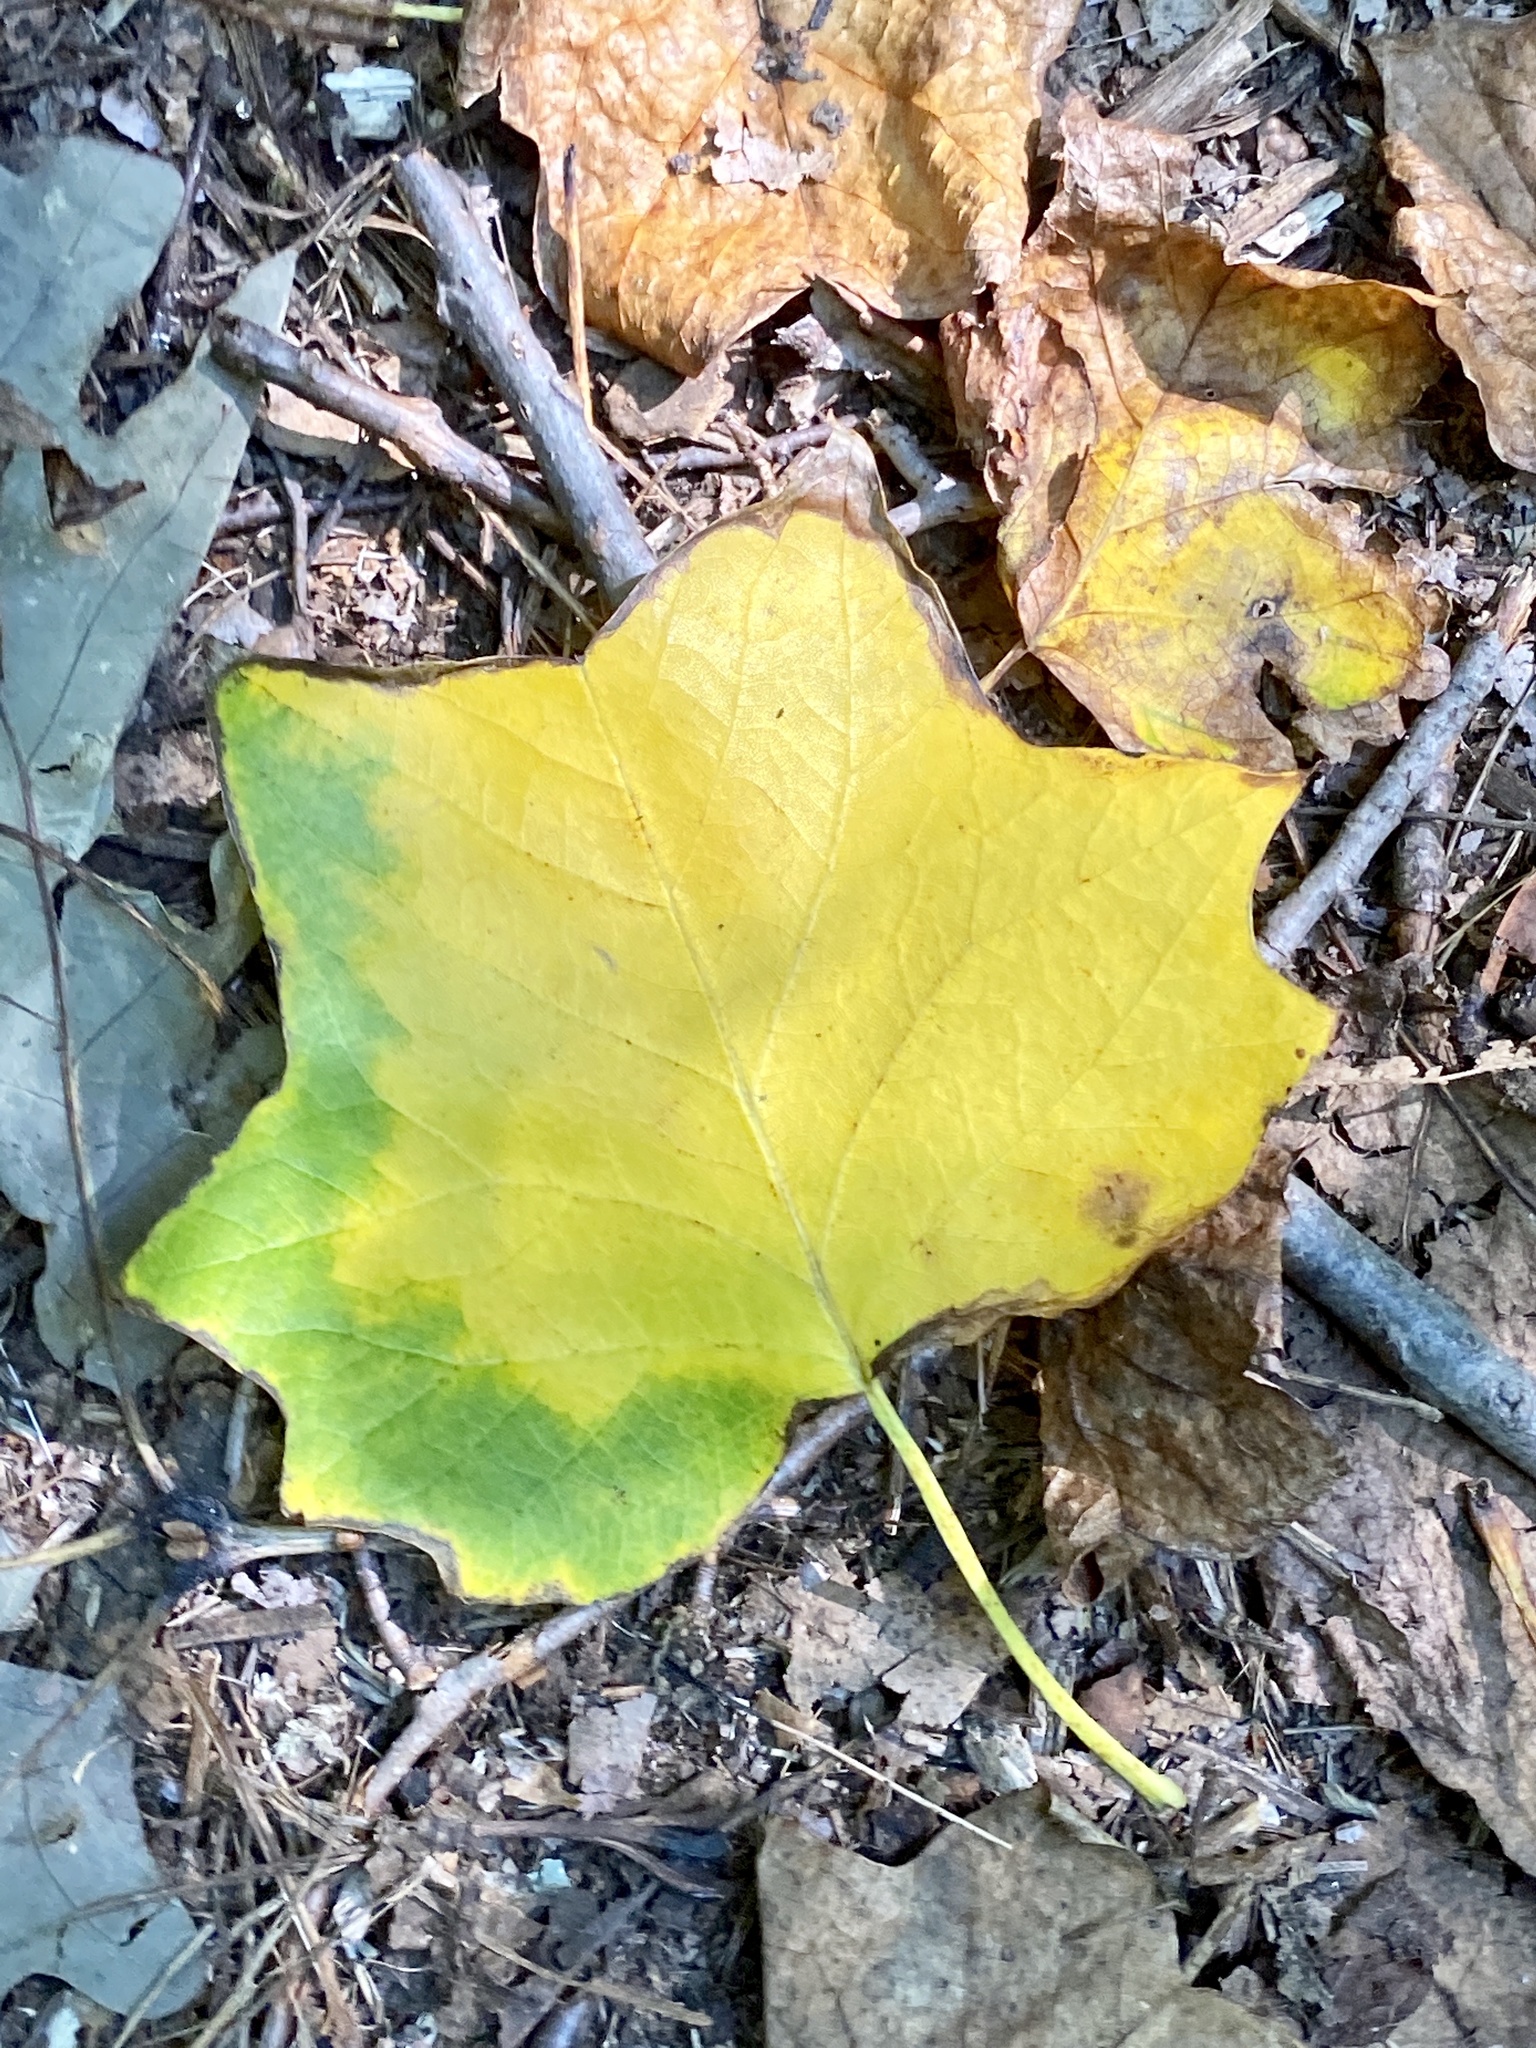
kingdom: Plantae
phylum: Tracheophyta
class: Magnoliopsida
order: Magnoliales
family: Magnoliaceae
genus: Liriodendron
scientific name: Liriodendron tulipifera
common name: Tulip tree
